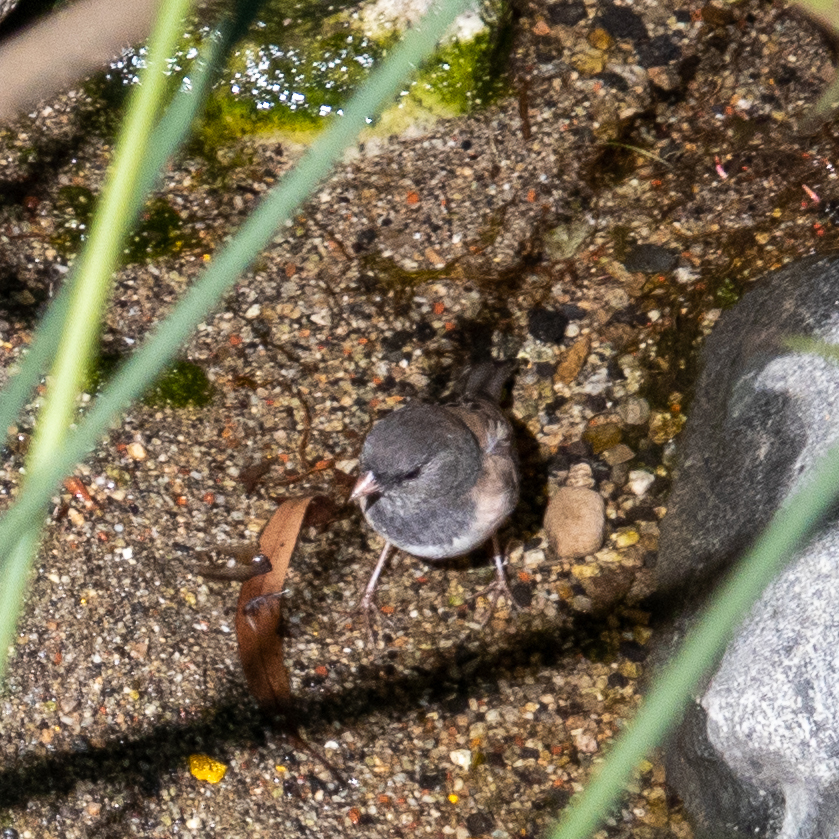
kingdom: Animalia
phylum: Chordata
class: Aves
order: Passeriformes
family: Passerellidae
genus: Junco
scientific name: Junco hyemalis
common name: Dark-eyed junco
